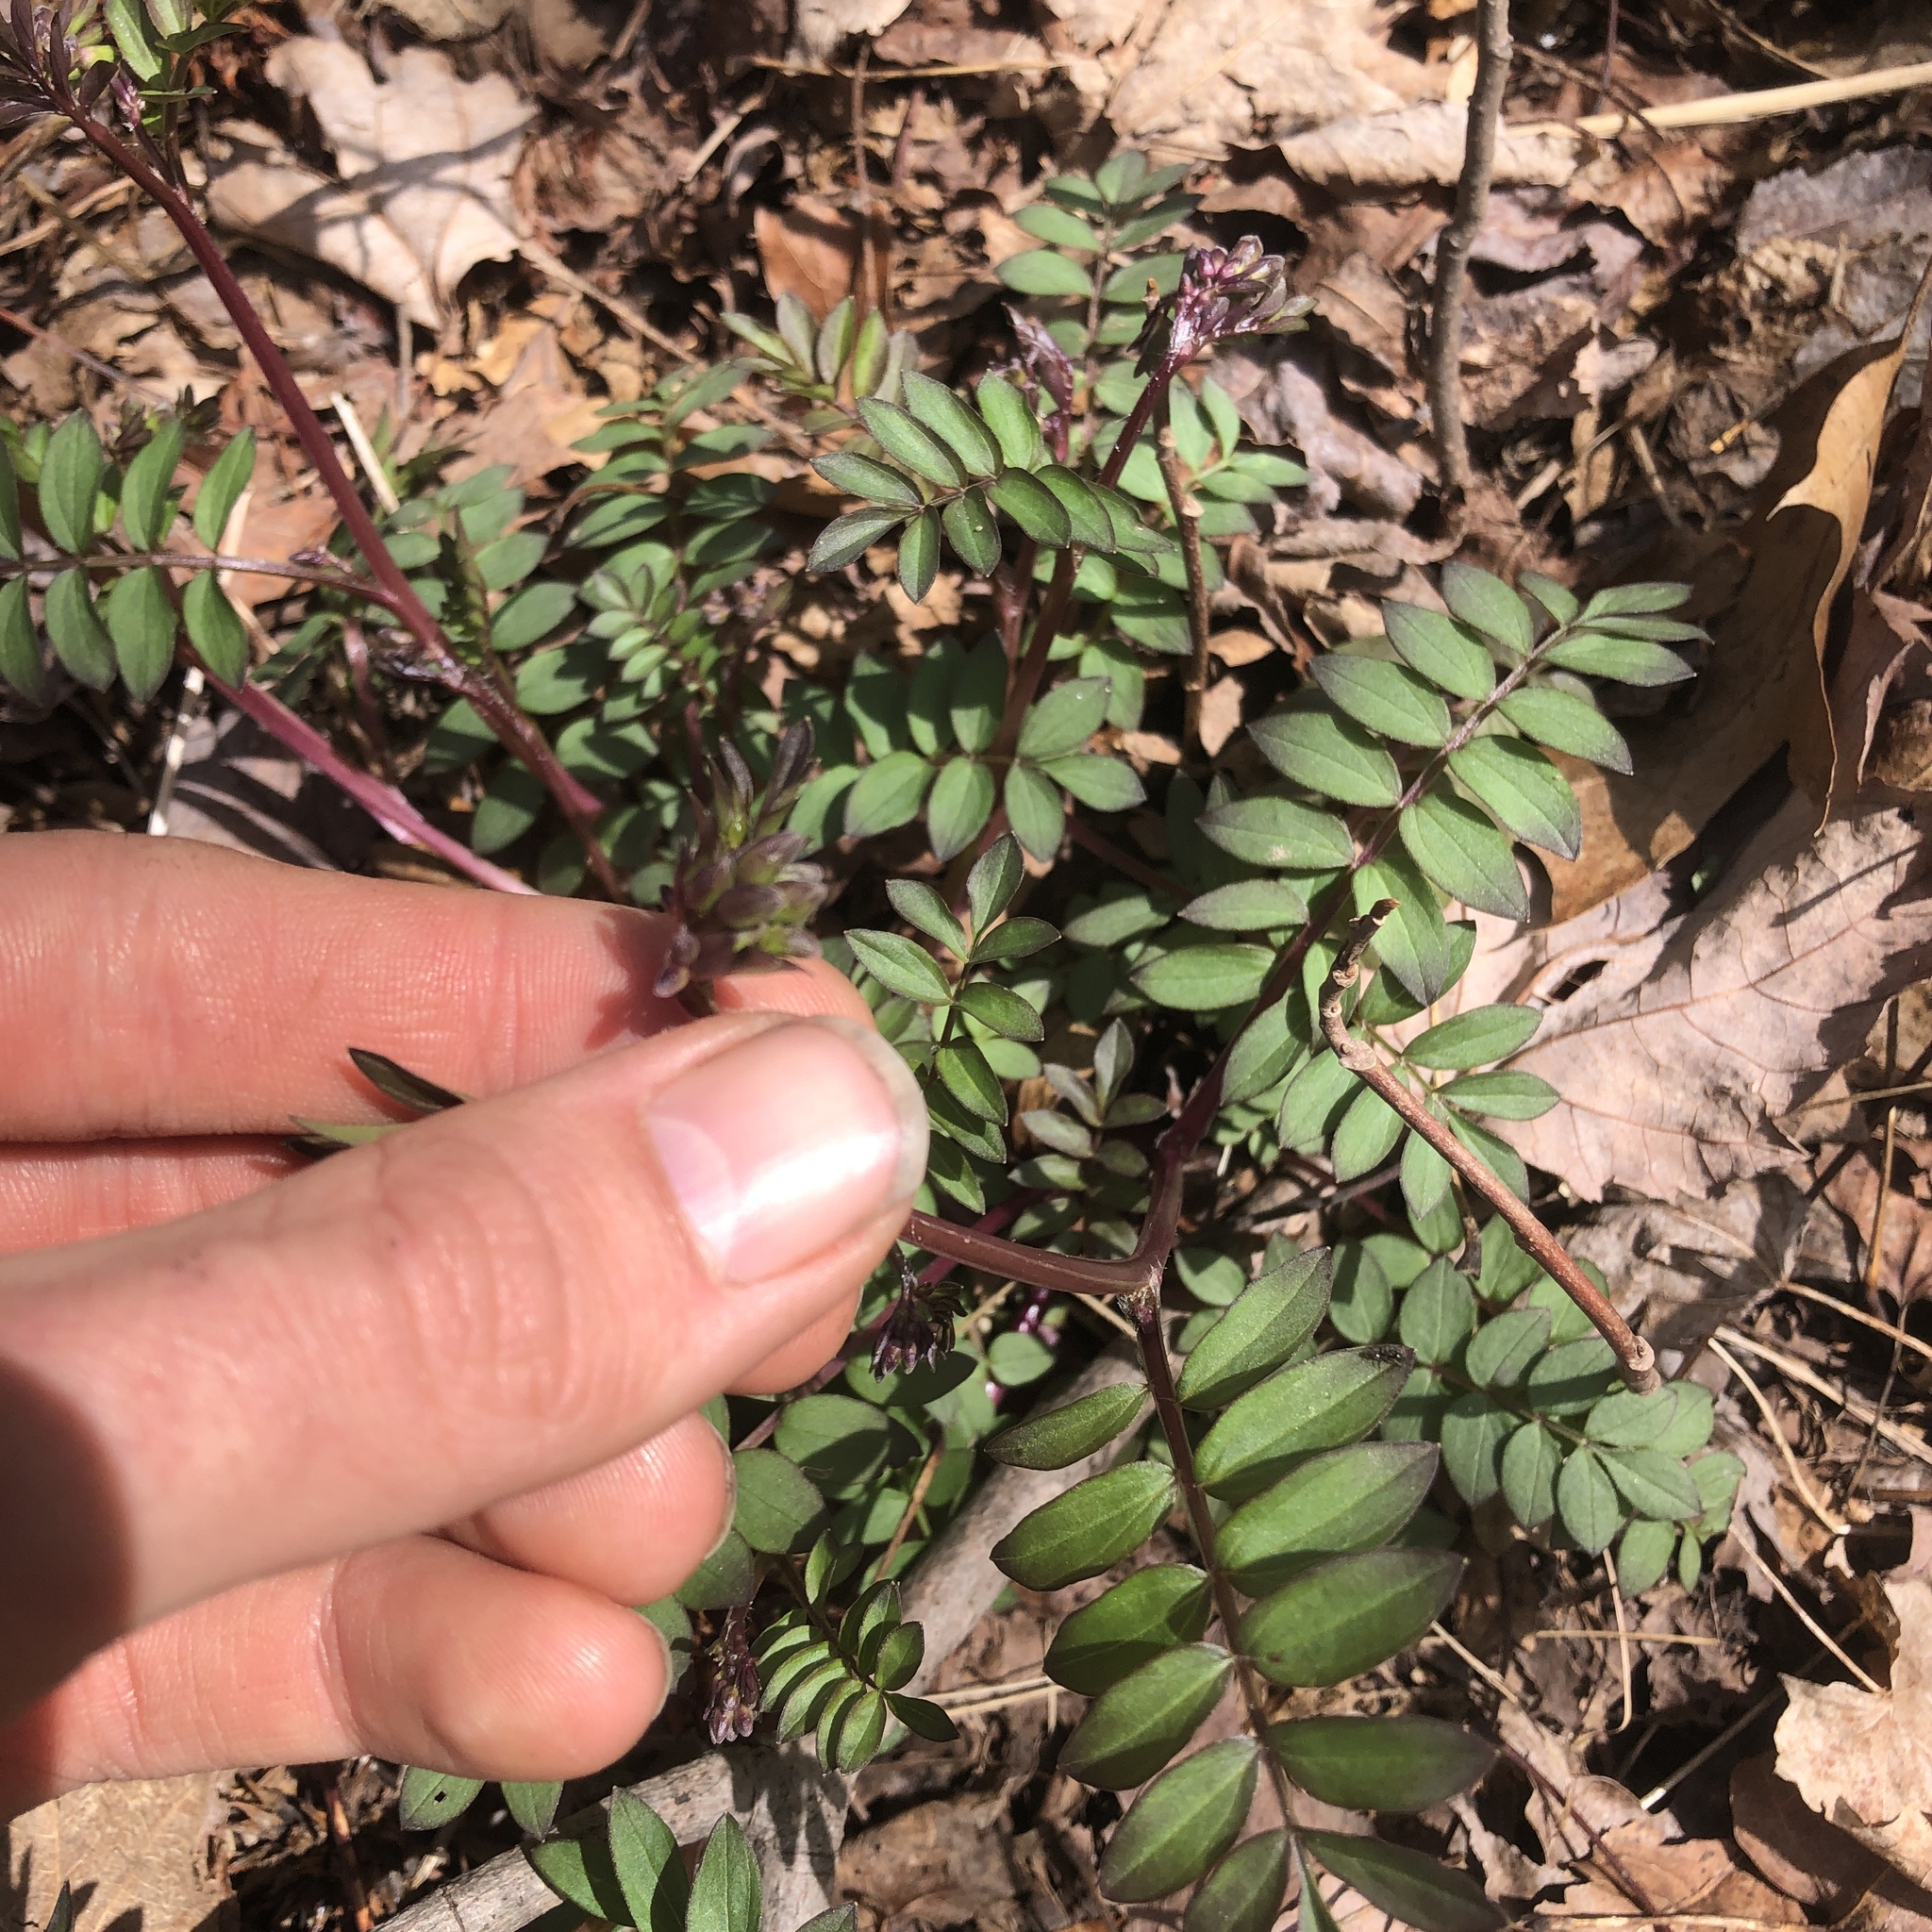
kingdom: Plantae
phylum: Tracheophyta
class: Magnoliopsida
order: Ericales
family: Polemoniaceae
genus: Polemonium
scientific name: Polemonium reptans
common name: Creeping jacob's-ladder
